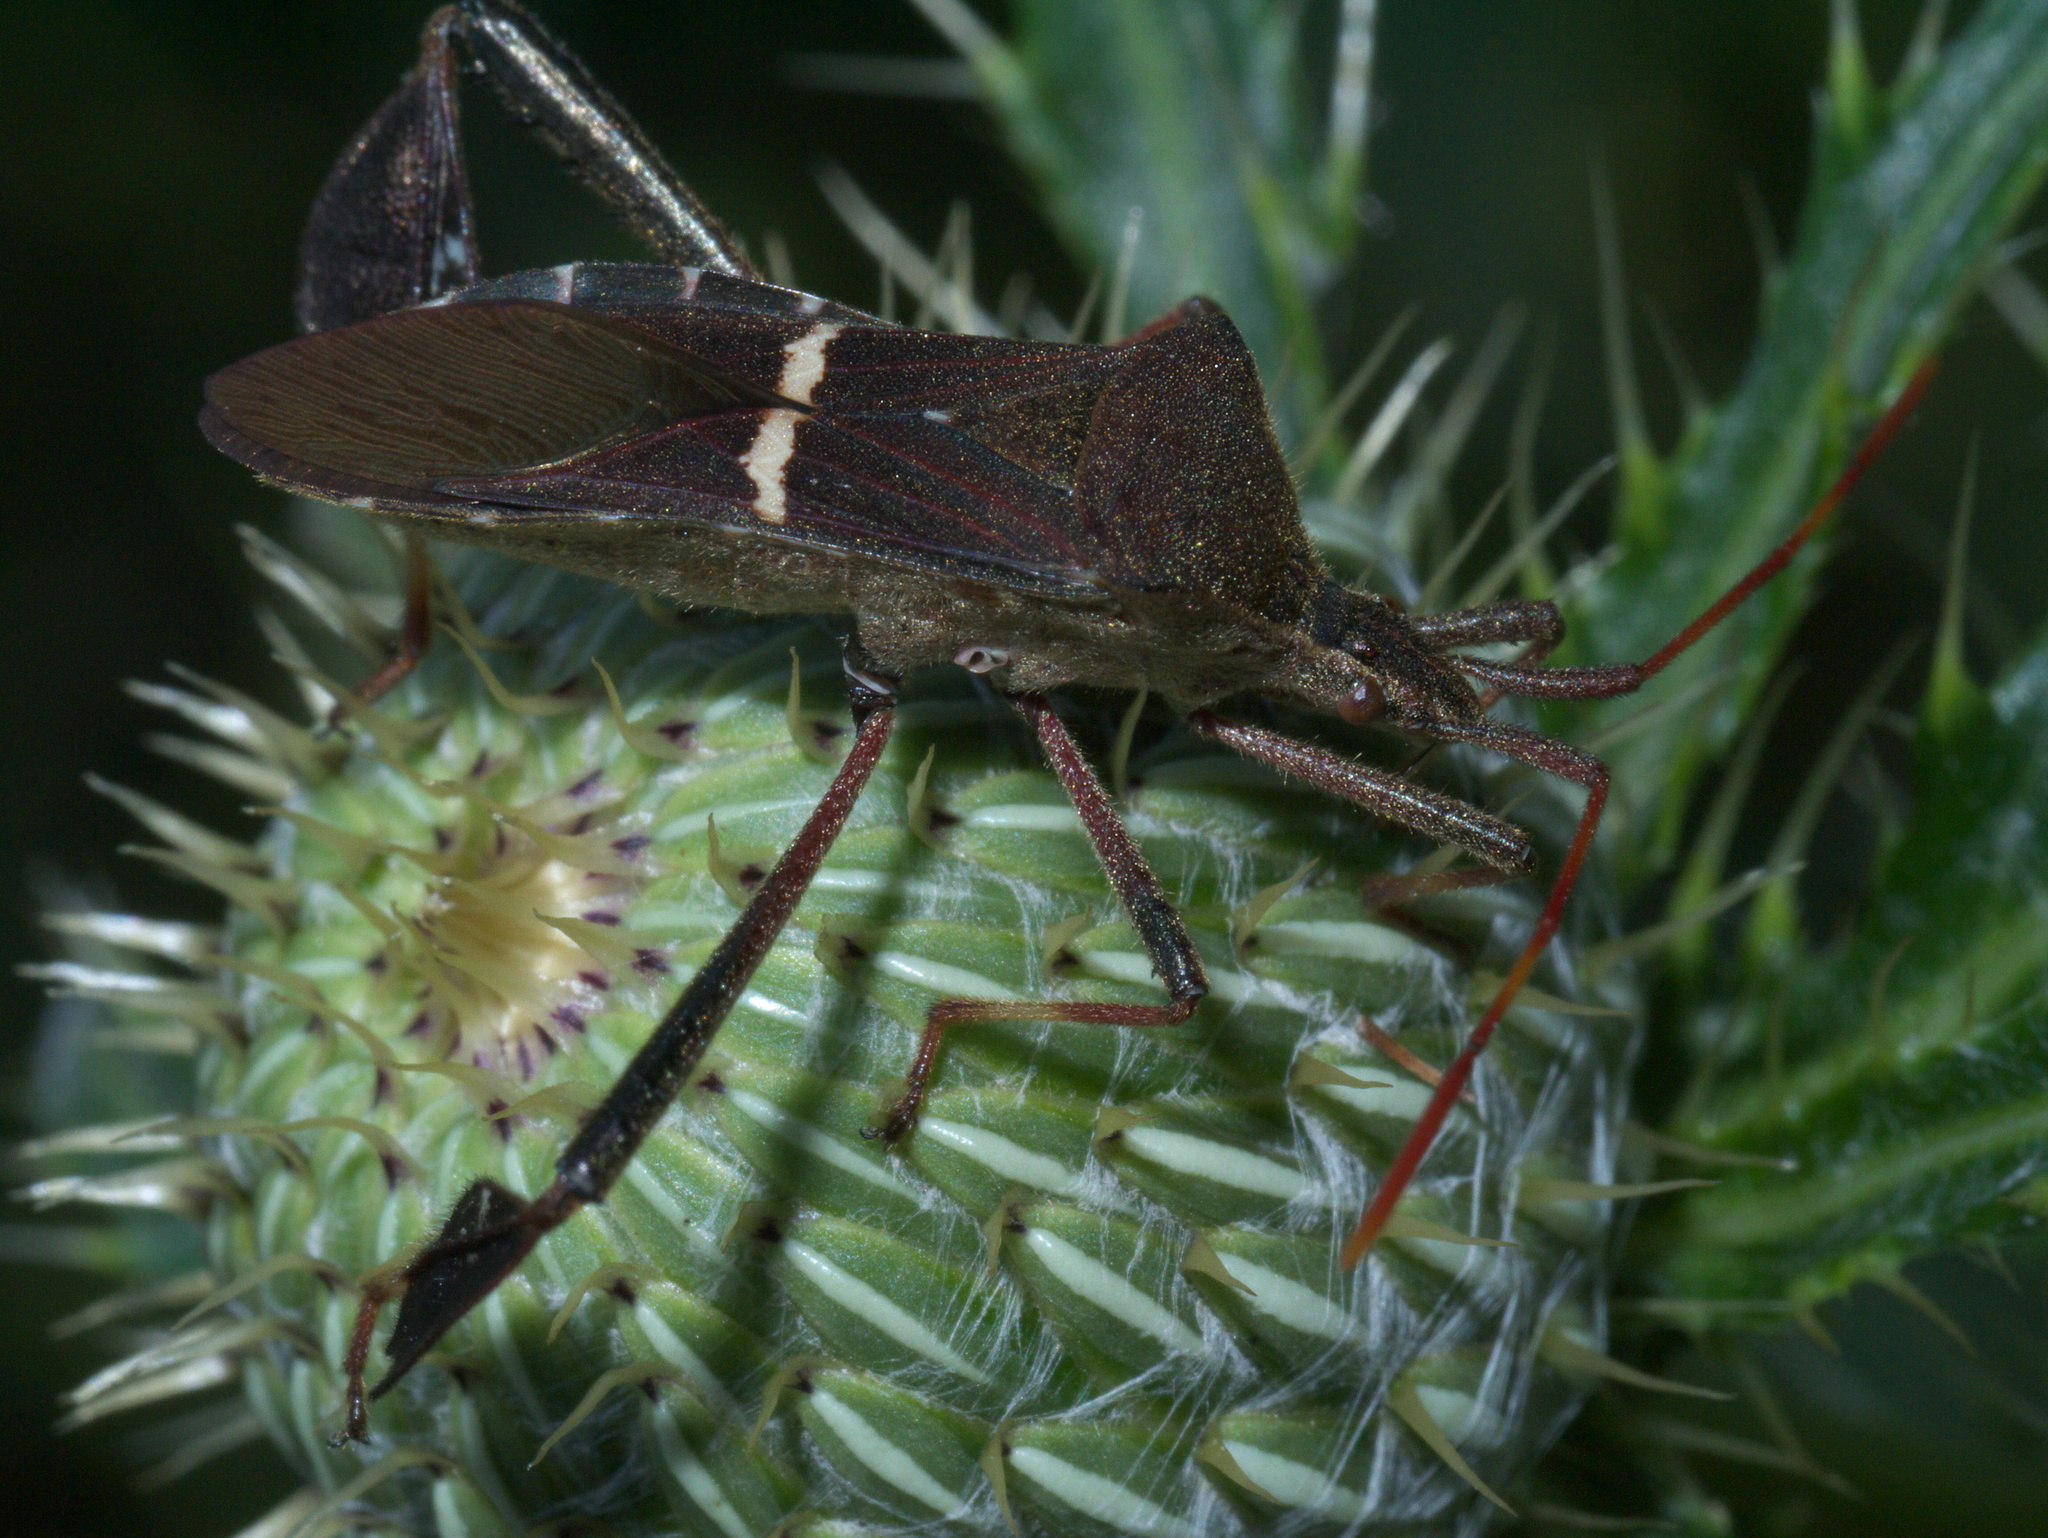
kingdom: Animalia
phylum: Arthropoda
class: Insecta
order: Hemiptera
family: Coreidae
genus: Leptoglossus
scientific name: Leptoglossus phyllopus
